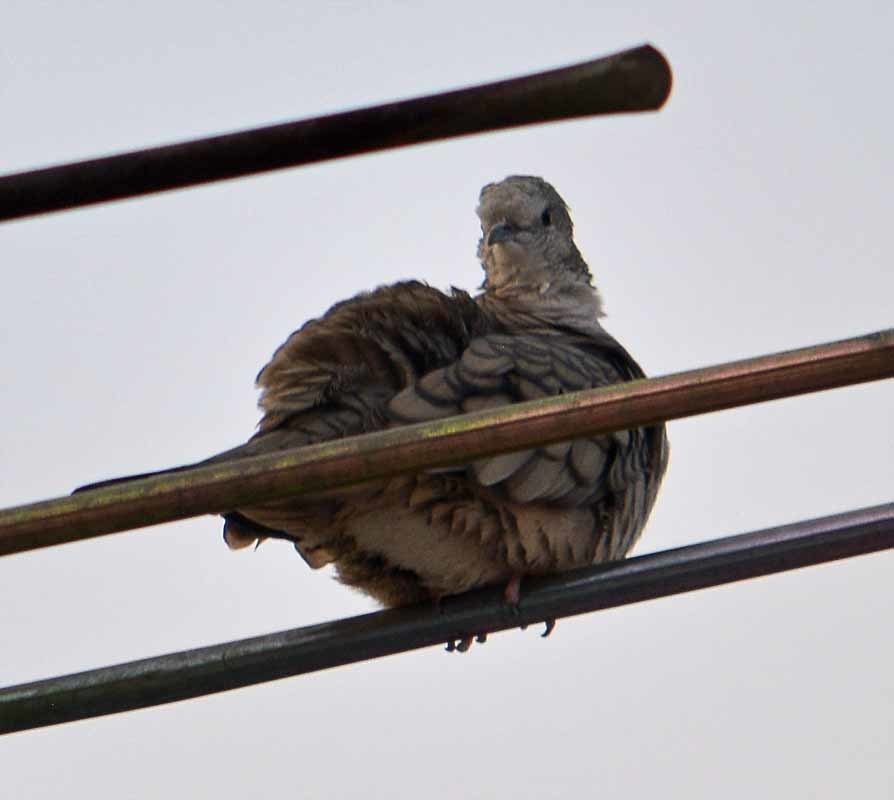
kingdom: Animalia
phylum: Chordata
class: Aves
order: Columbiformes
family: Columbidae
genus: Columbina
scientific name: Columbina inca
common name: Inca dove
